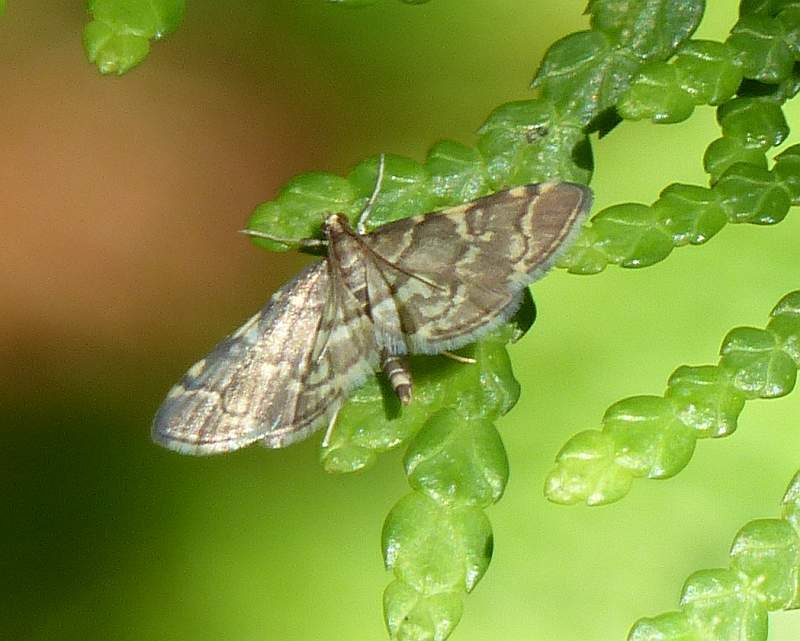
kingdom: Animalia
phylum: Arthropoda
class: Insecta
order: Lepidoptera
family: Crambidae
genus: Anageshna
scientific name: Anageshna primordialis
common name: Yellow-spotted webworm moth
